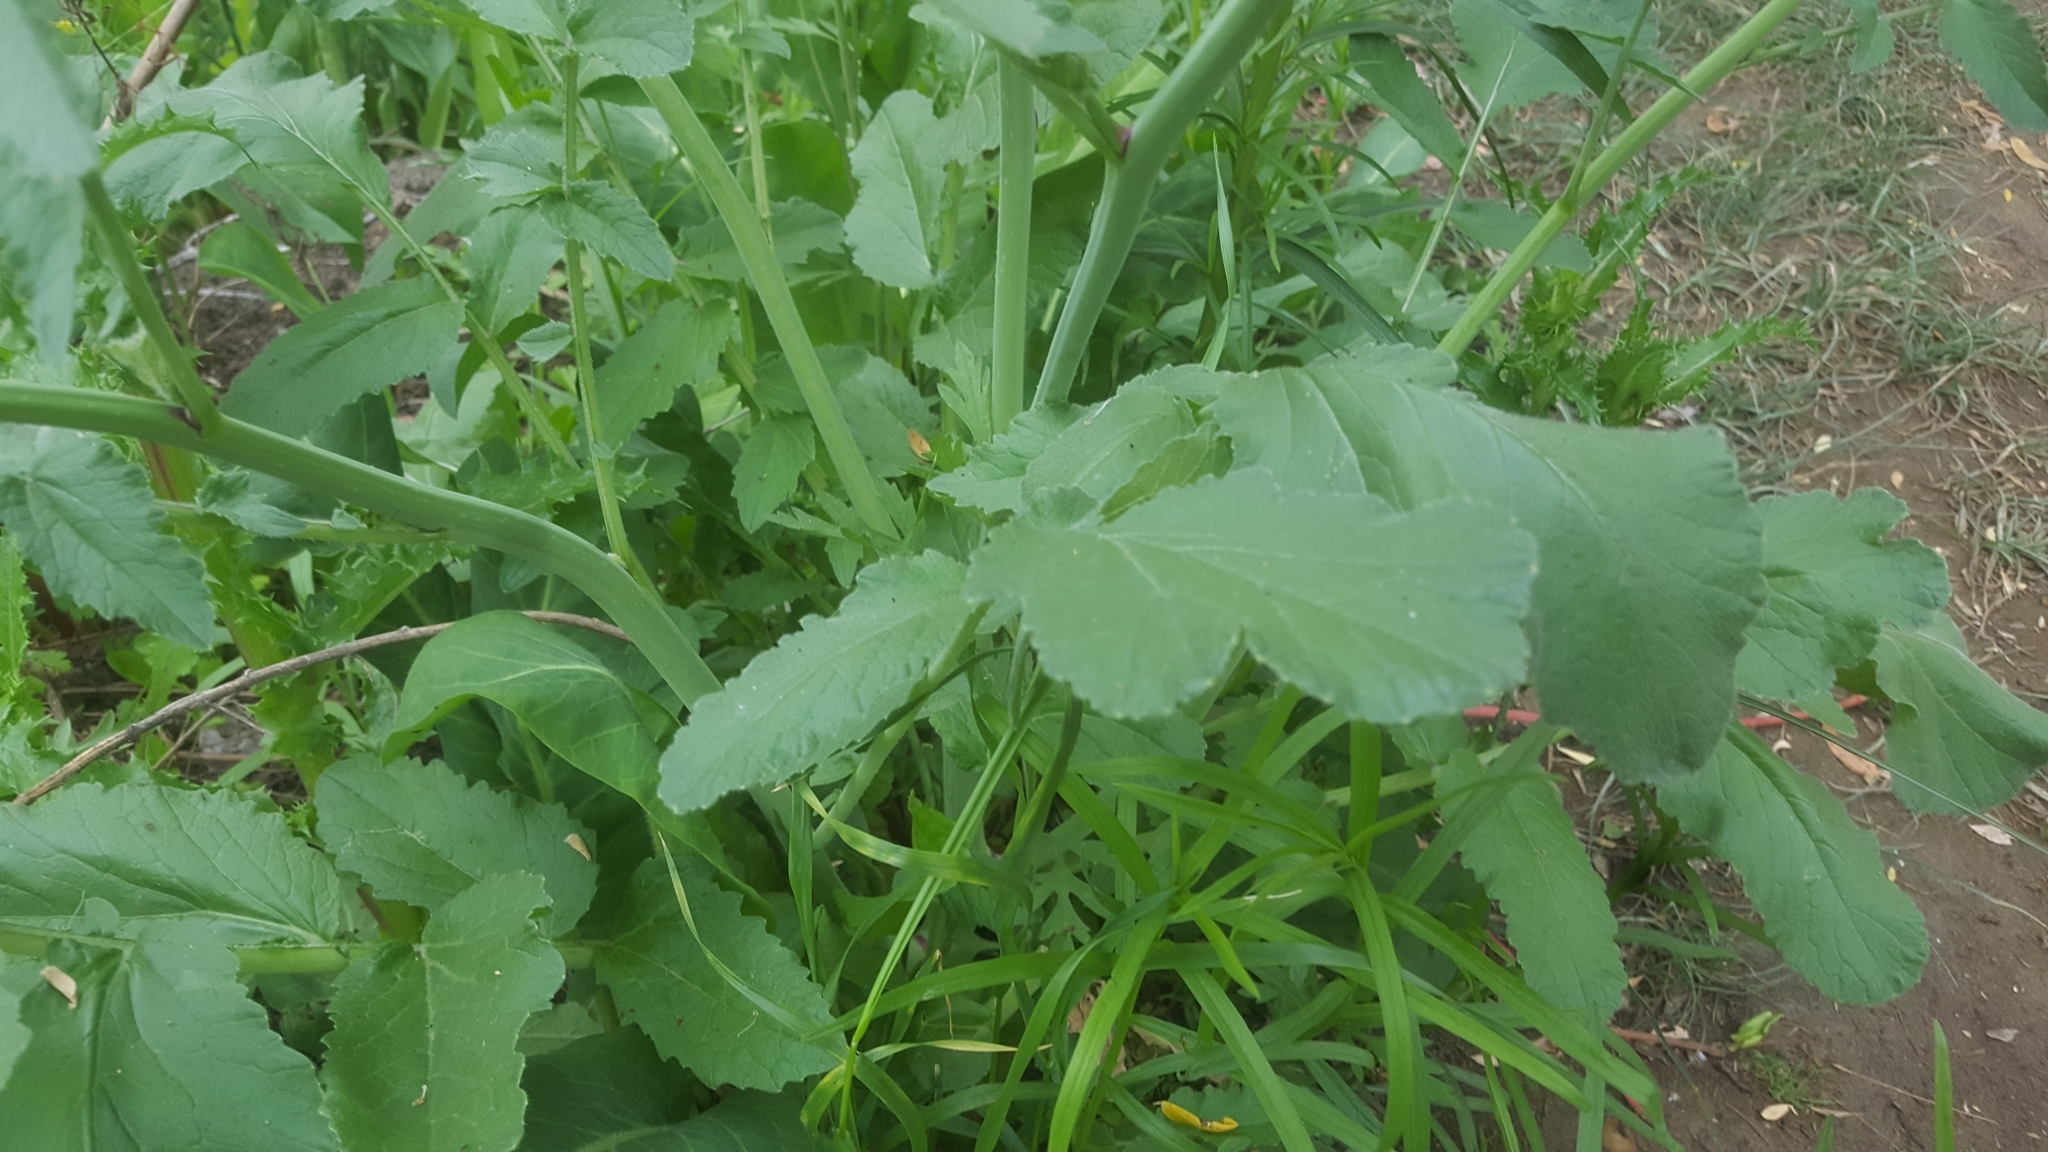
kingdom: Plantae
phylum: Tracheophyta
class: Magnoliopsida
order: Brassicales
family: Brassicaceae
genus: Raphanus
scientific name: Raphanus sativus
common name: Cultivated radish
